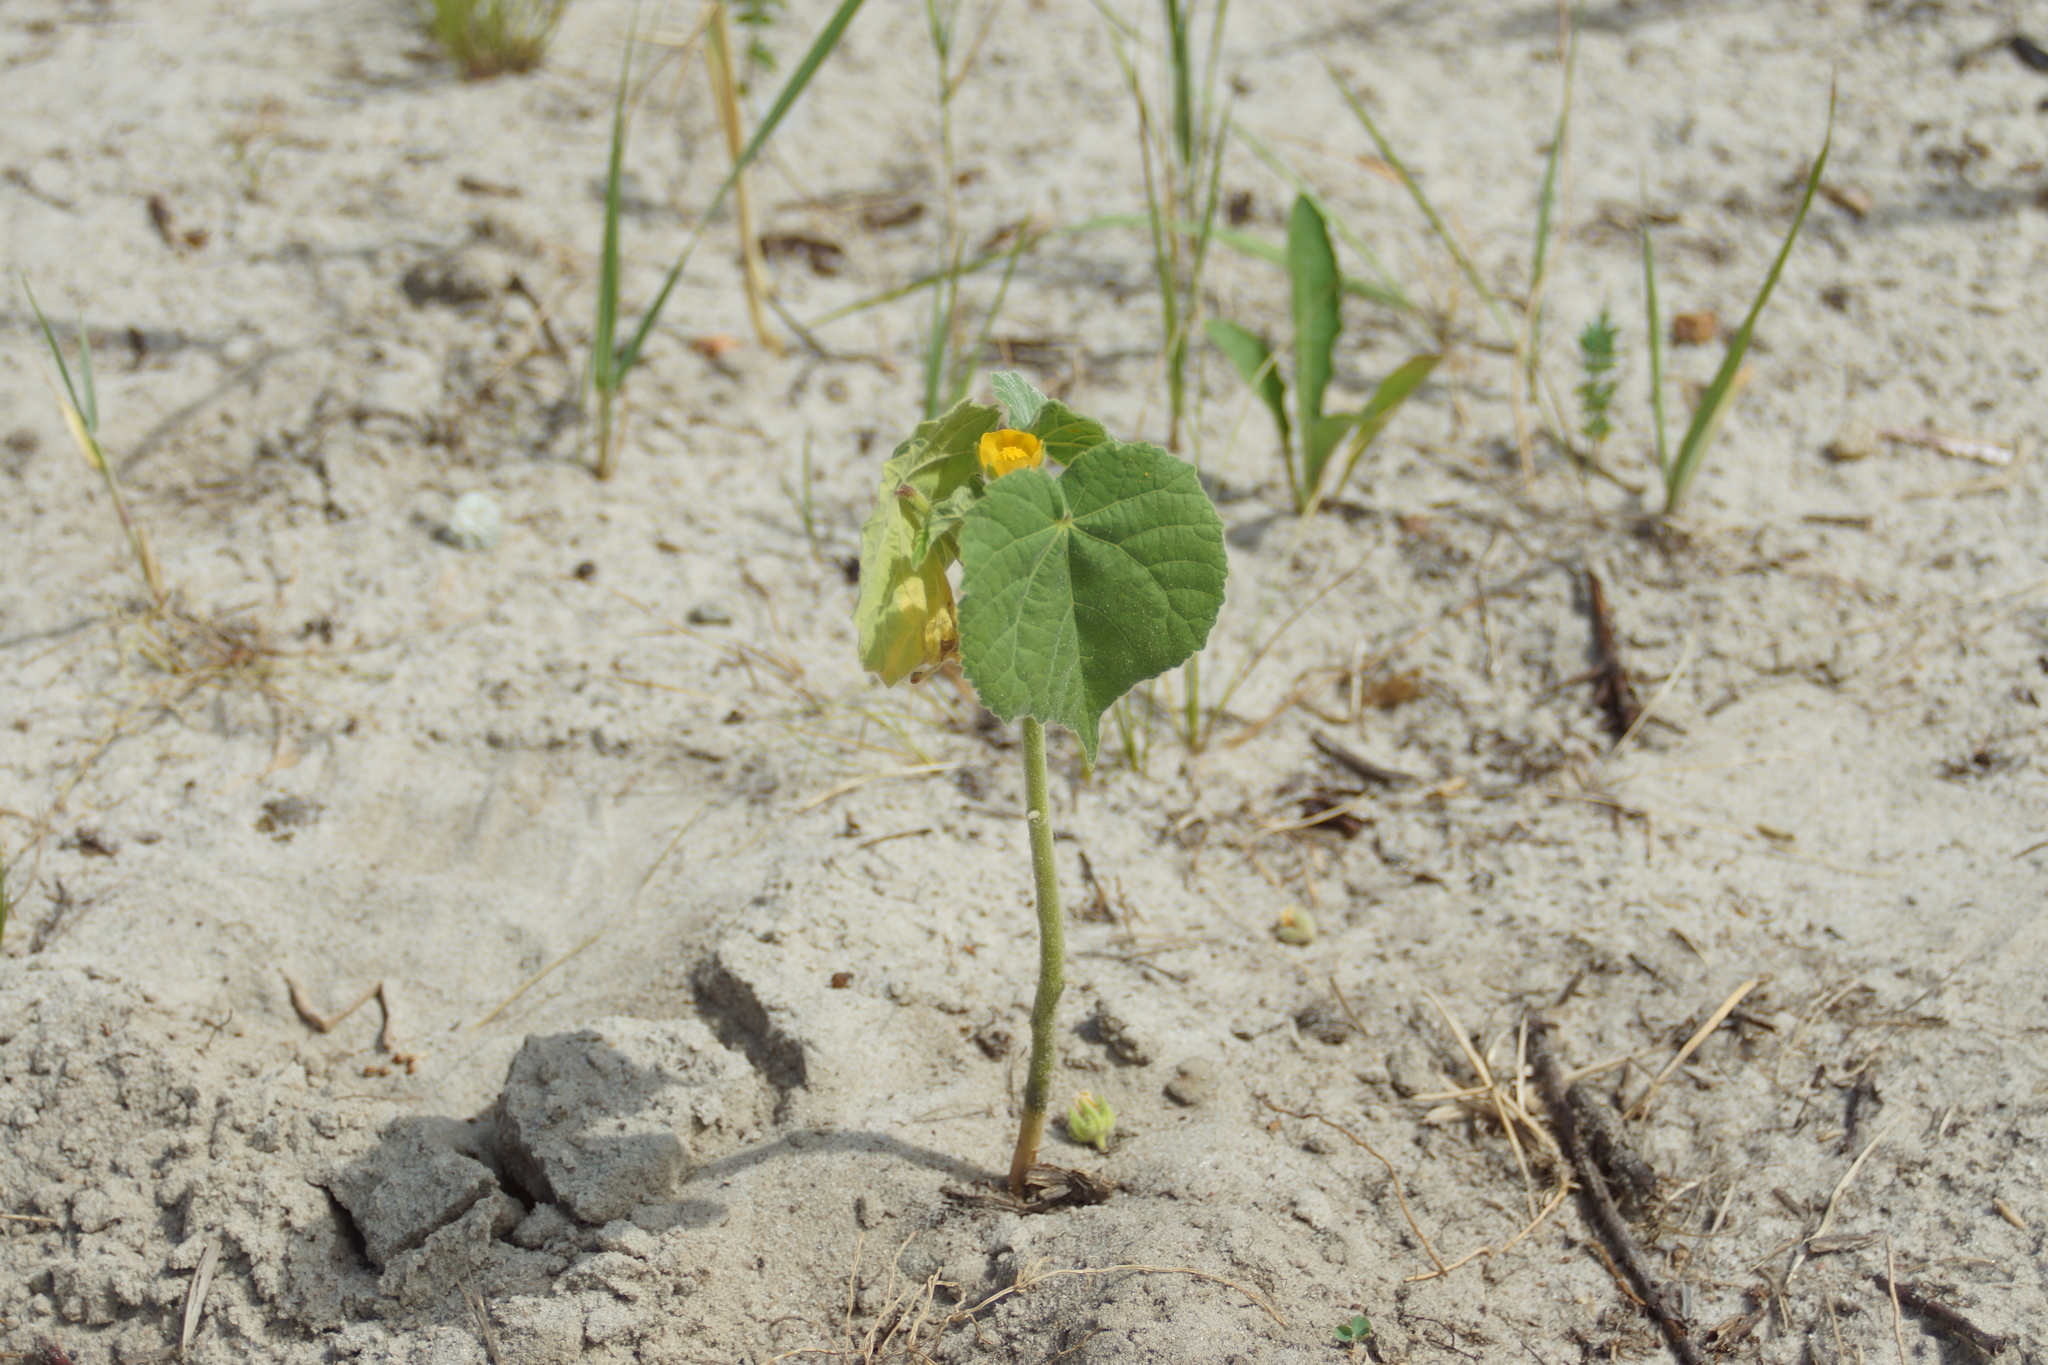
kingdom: Plantae
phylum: Tracheophyta
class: Magnoliopsida
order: Malvales
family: Malvaceae
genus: Abutilon
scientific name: Abutilon theophrasti
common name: Velvetleaf
